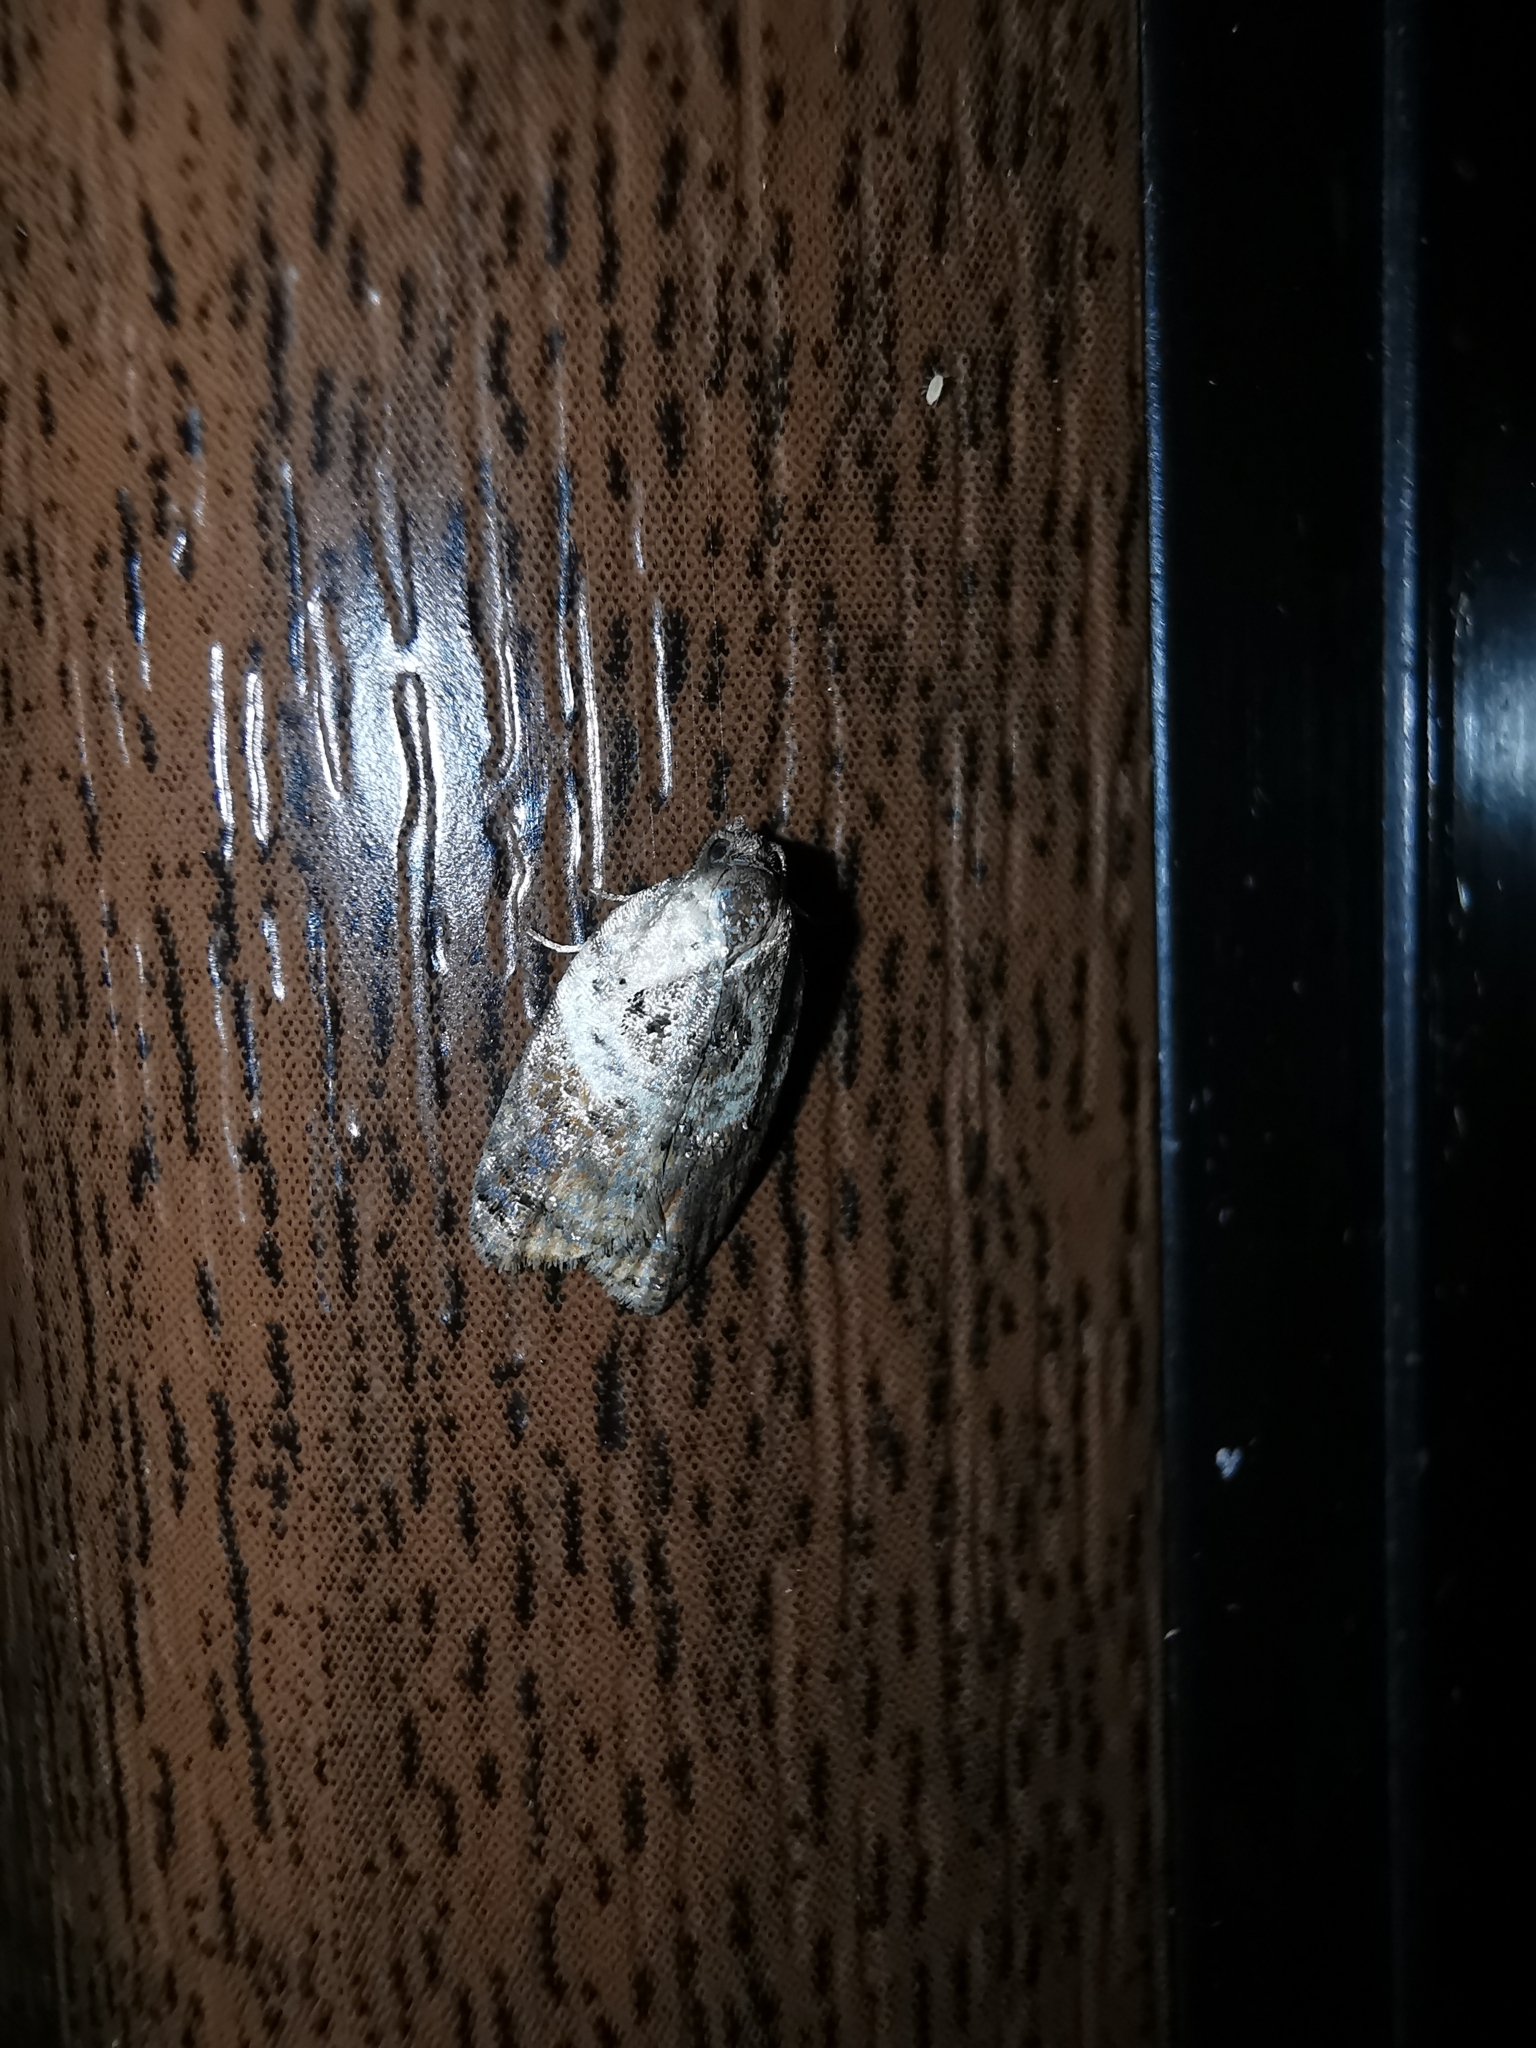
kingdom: Animalia
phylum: Arthropoda
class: Insecta
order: Lepidoptera
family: Tortricidae
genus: Acleris
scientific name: Acleris variegana
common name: Garden rose tortrix
